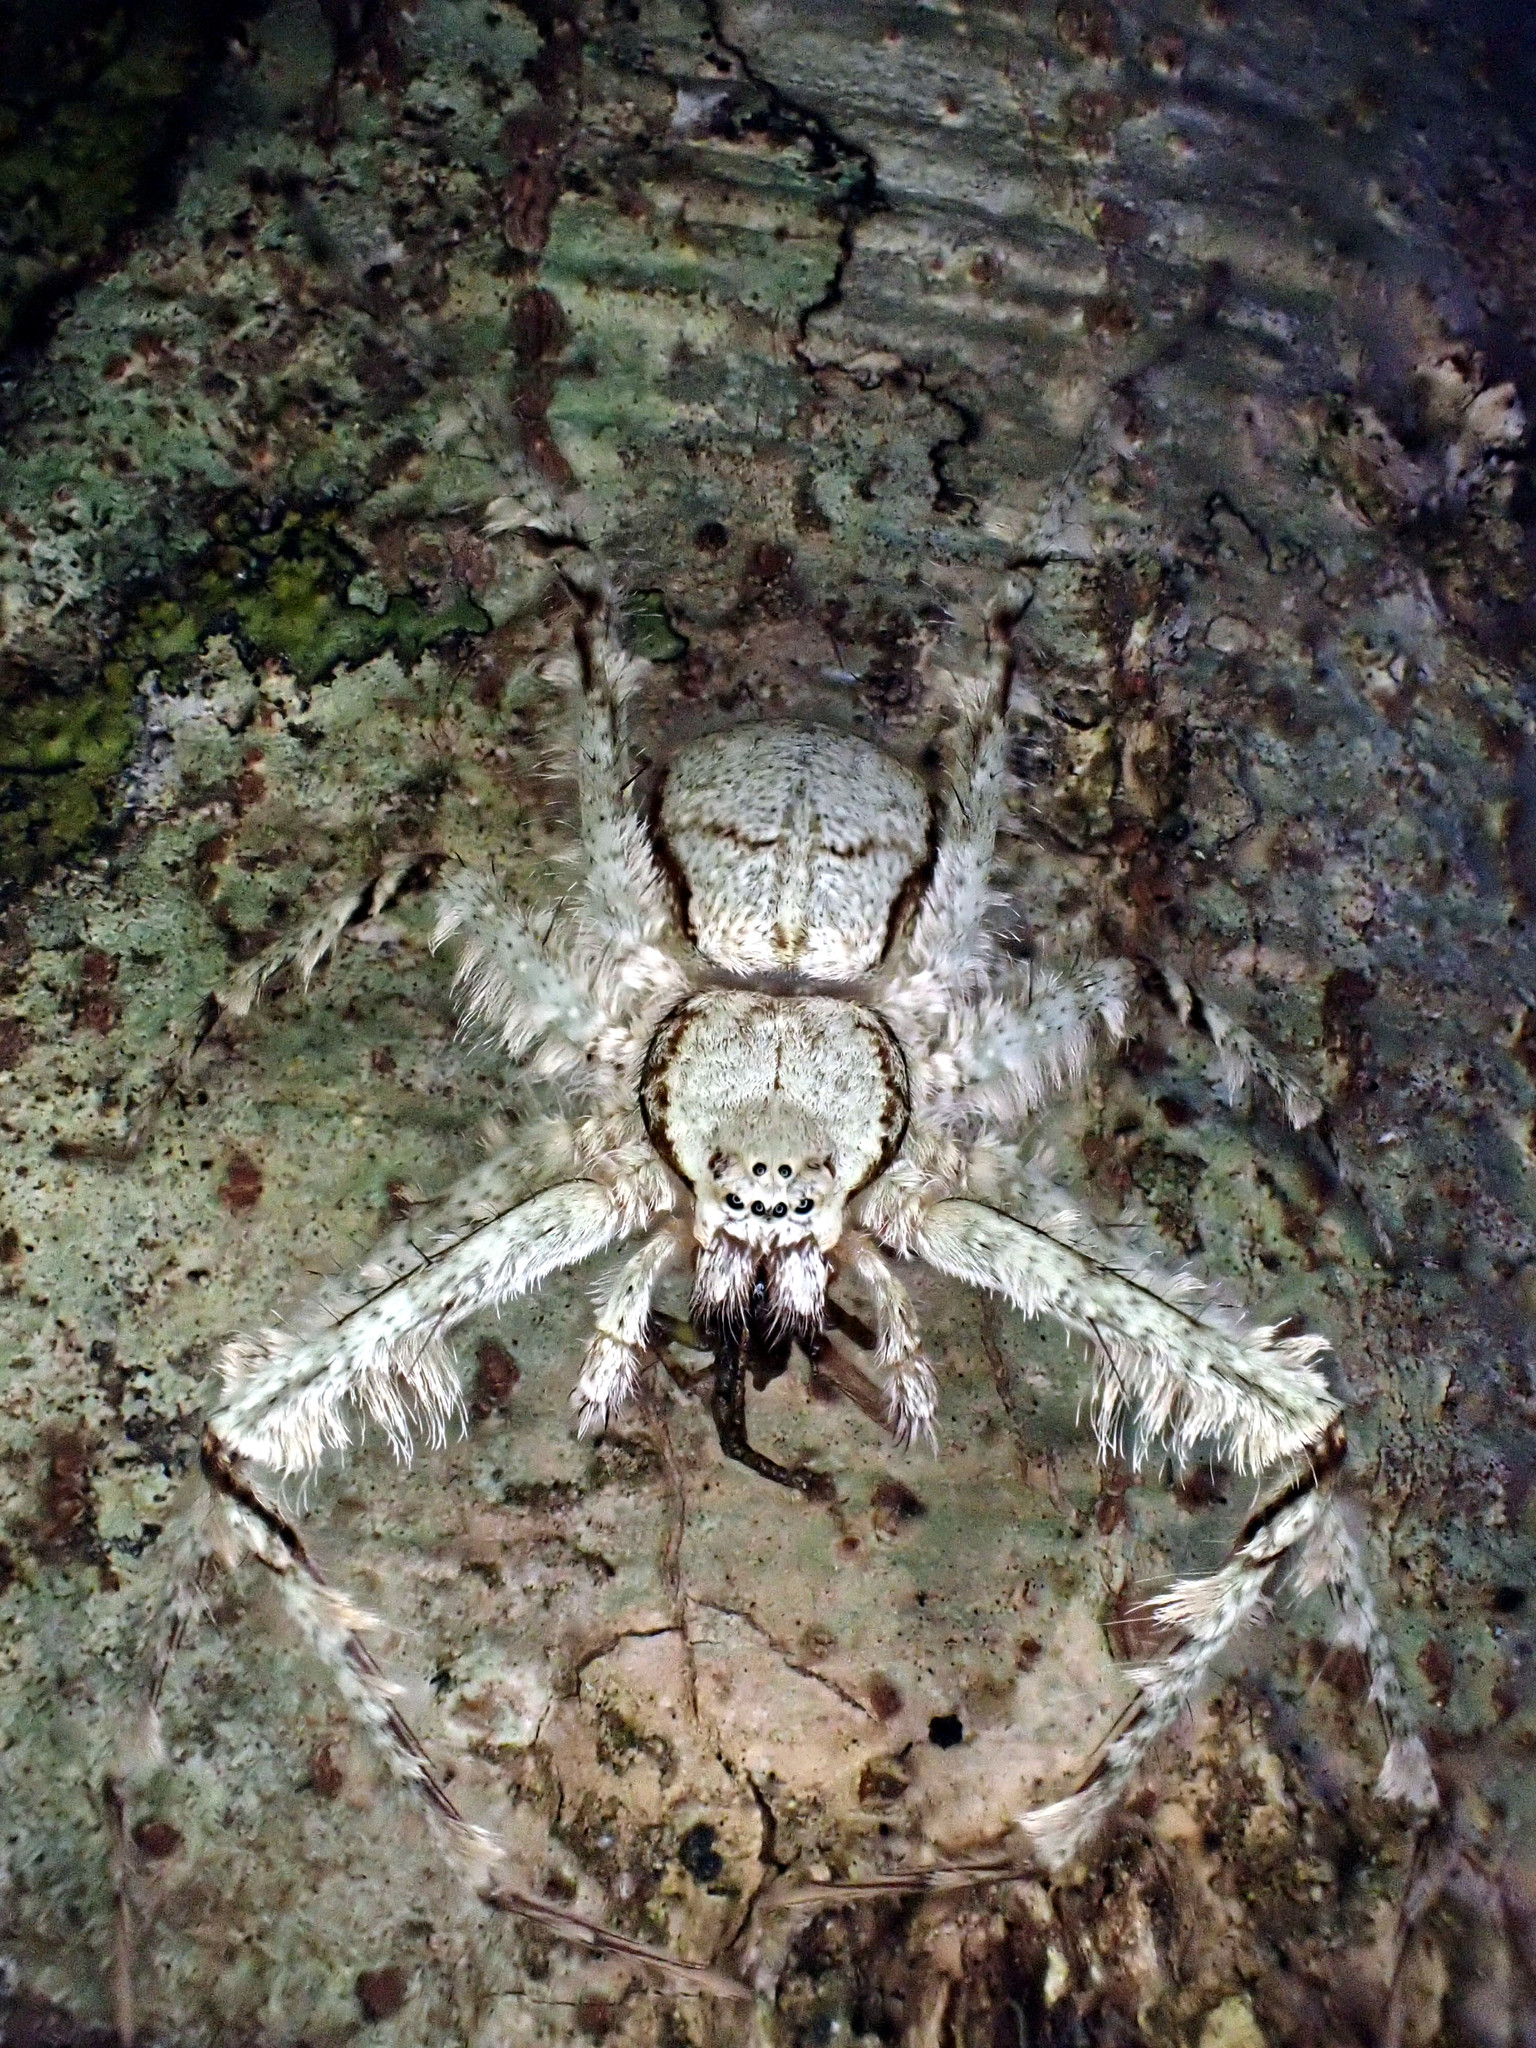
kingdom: Animalia
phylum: Arthropoda
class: Arachnida
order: Araneae
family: Sparassidae
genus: Pandercetes
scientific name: Pandercetes gracilis
